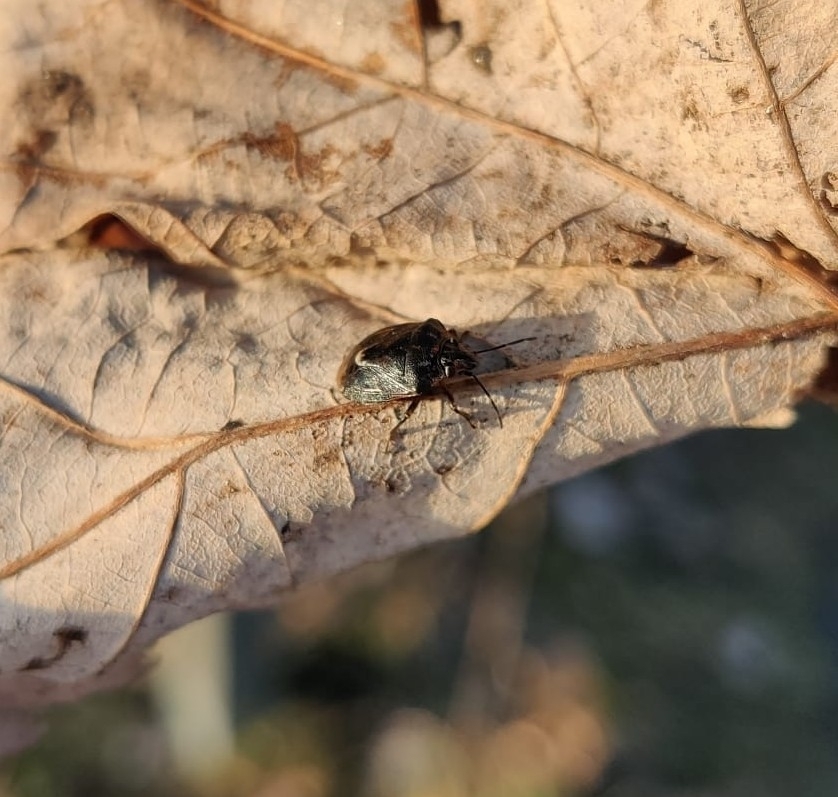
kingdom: Animalia
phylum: Arthropoda
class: Insecta
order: Hemiptera
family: Pentatomidae
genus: Holcogaster
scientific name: Holcogaster fibulata
